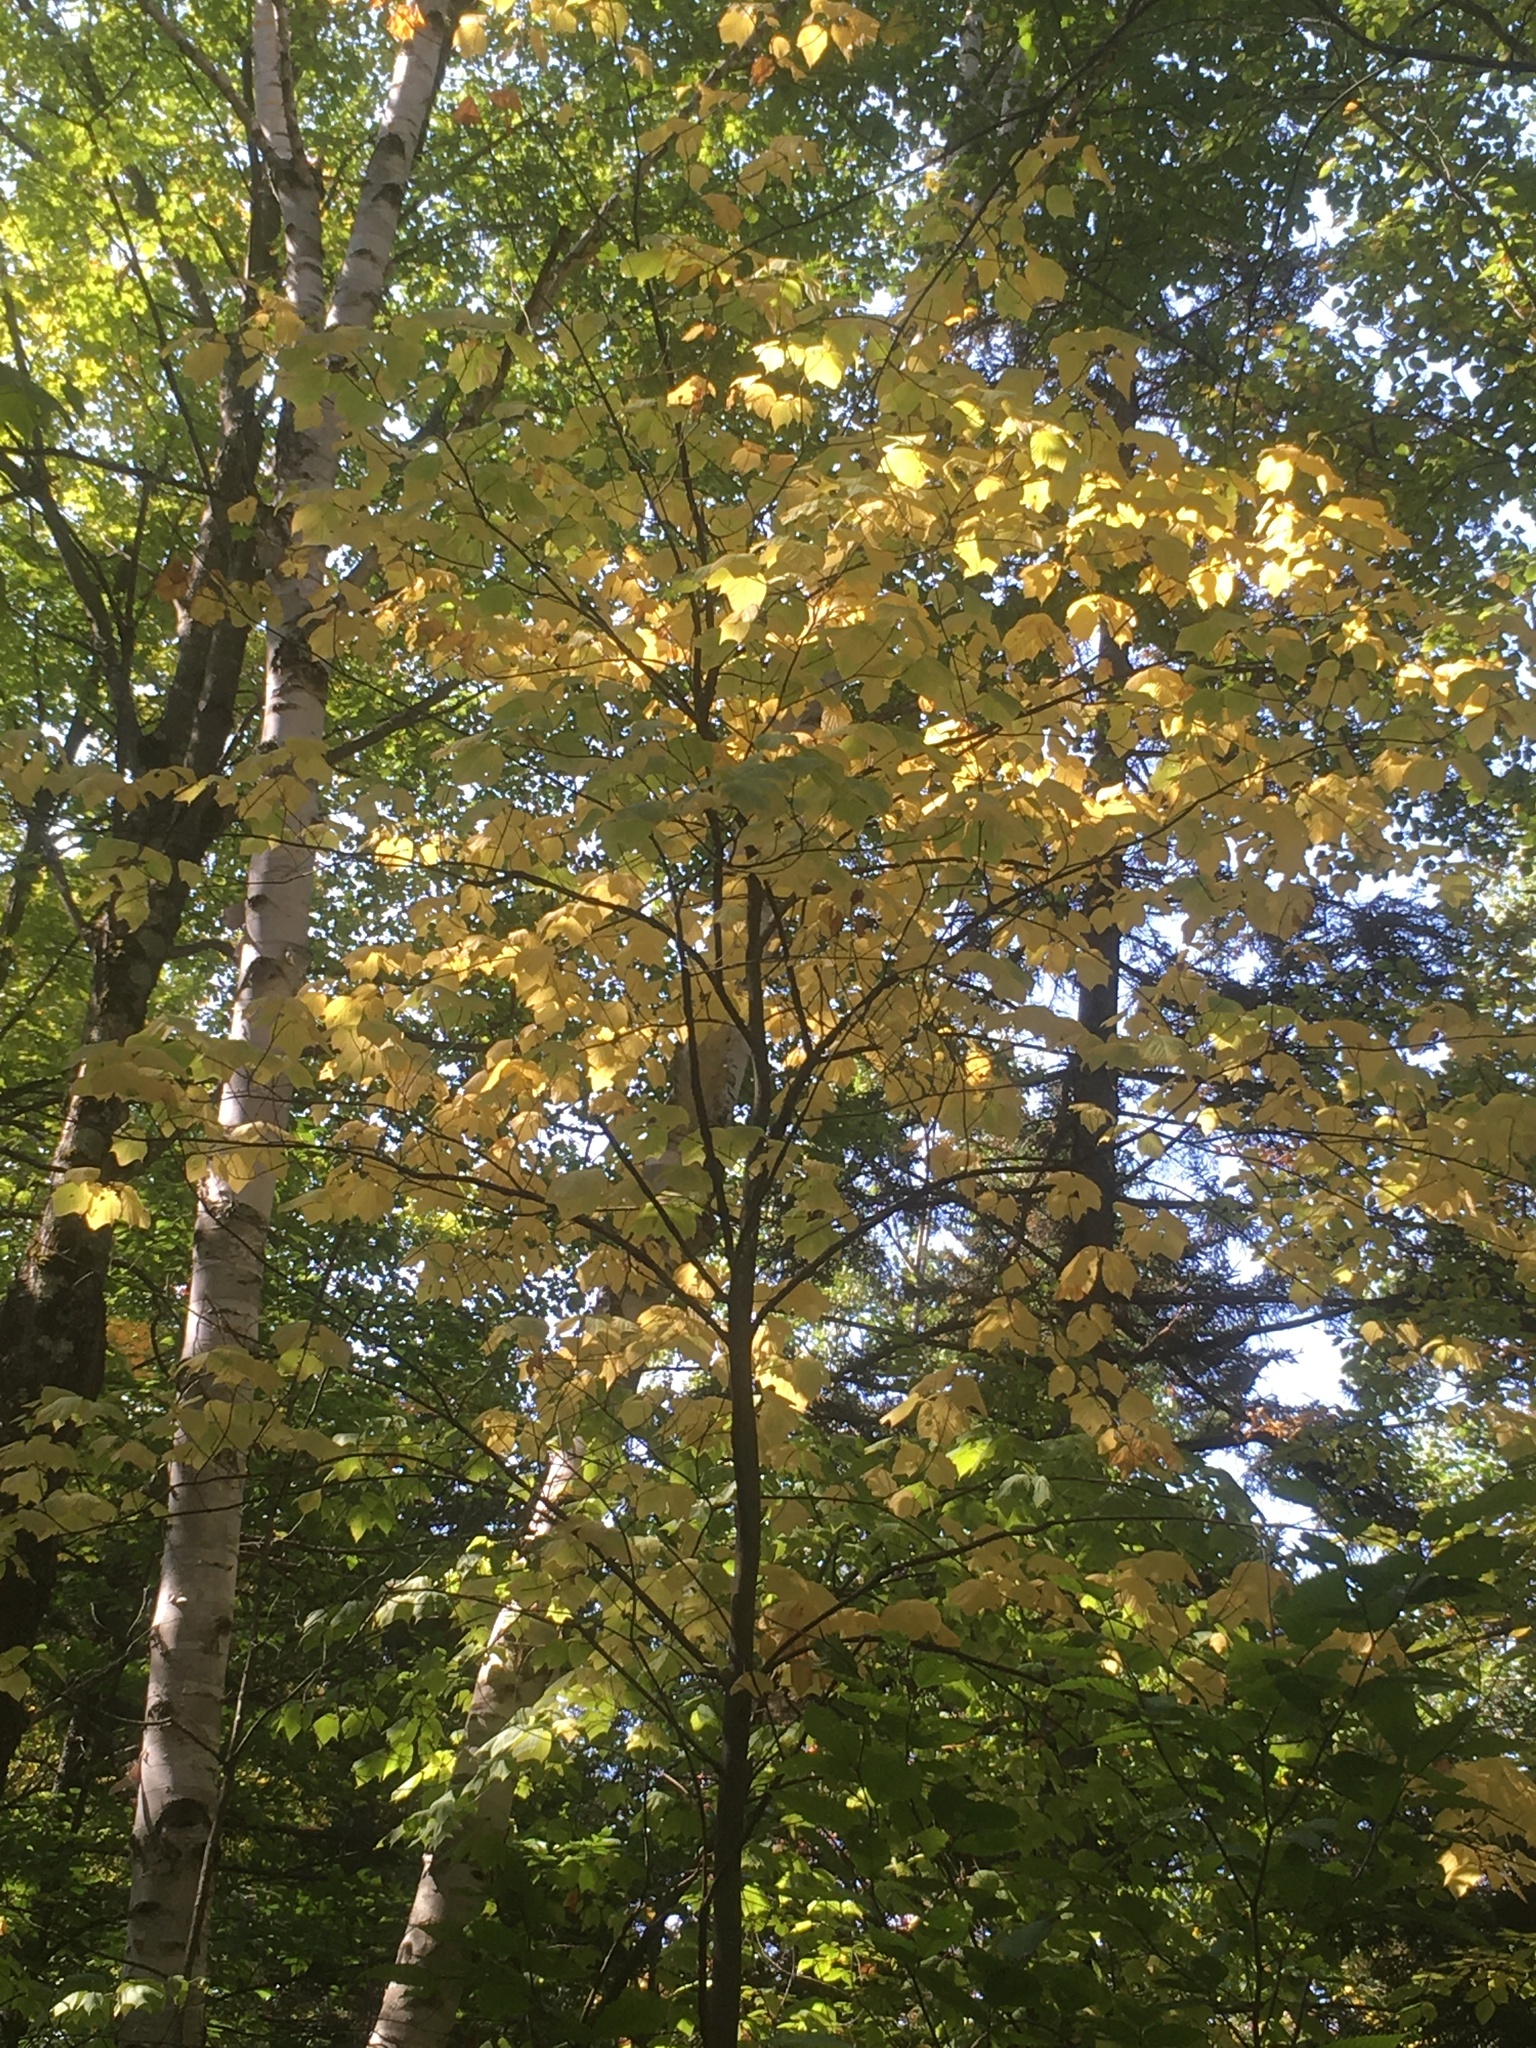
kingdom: Plantae
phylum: Tracheophyta
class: Magnoliopsida
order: Sapindales
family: Sapindaceae
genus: Acer
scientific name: Acer pensylvanicum
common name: Moosewood
